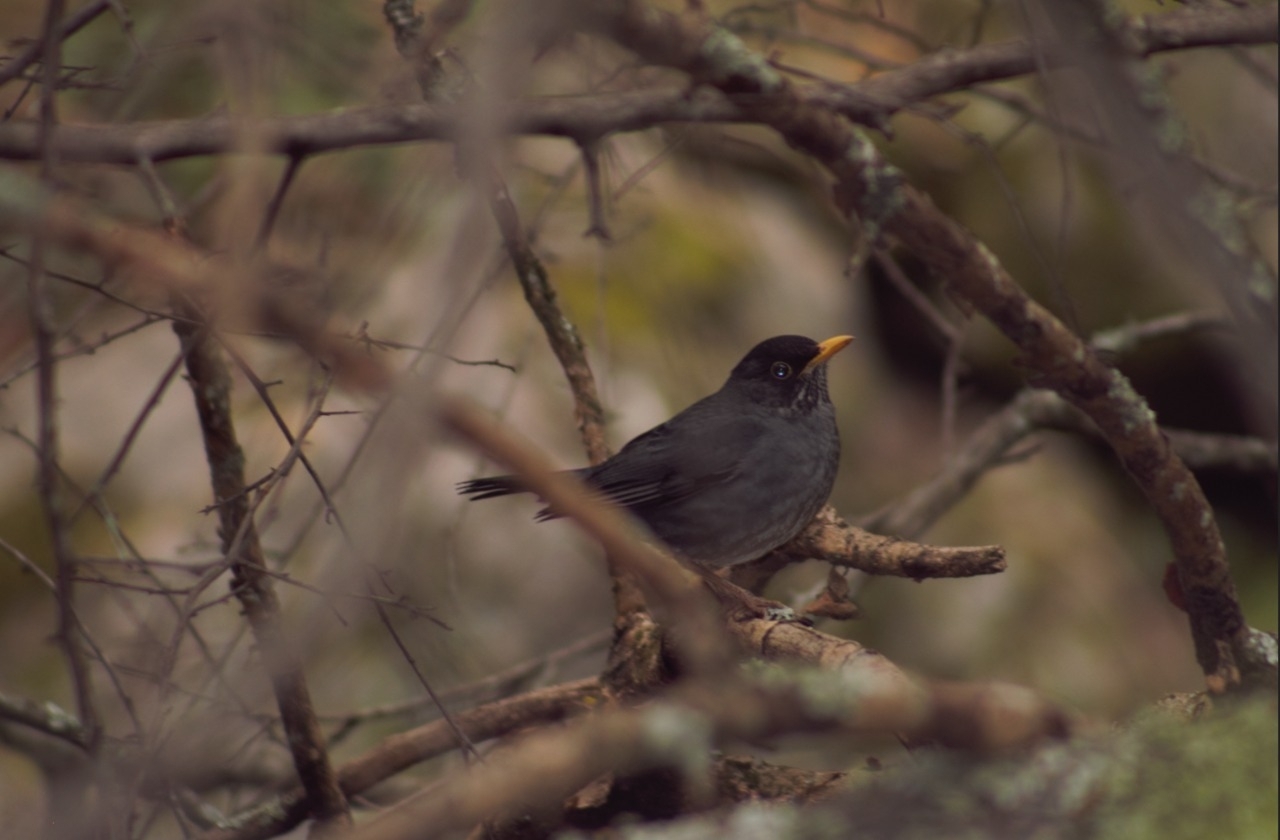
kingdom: Animalia
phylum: Chordata
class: Aves
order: Passeriformes
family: Turdidae
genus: Turdus
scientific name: Turdus nigriceps
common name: Andean slaty thrush
